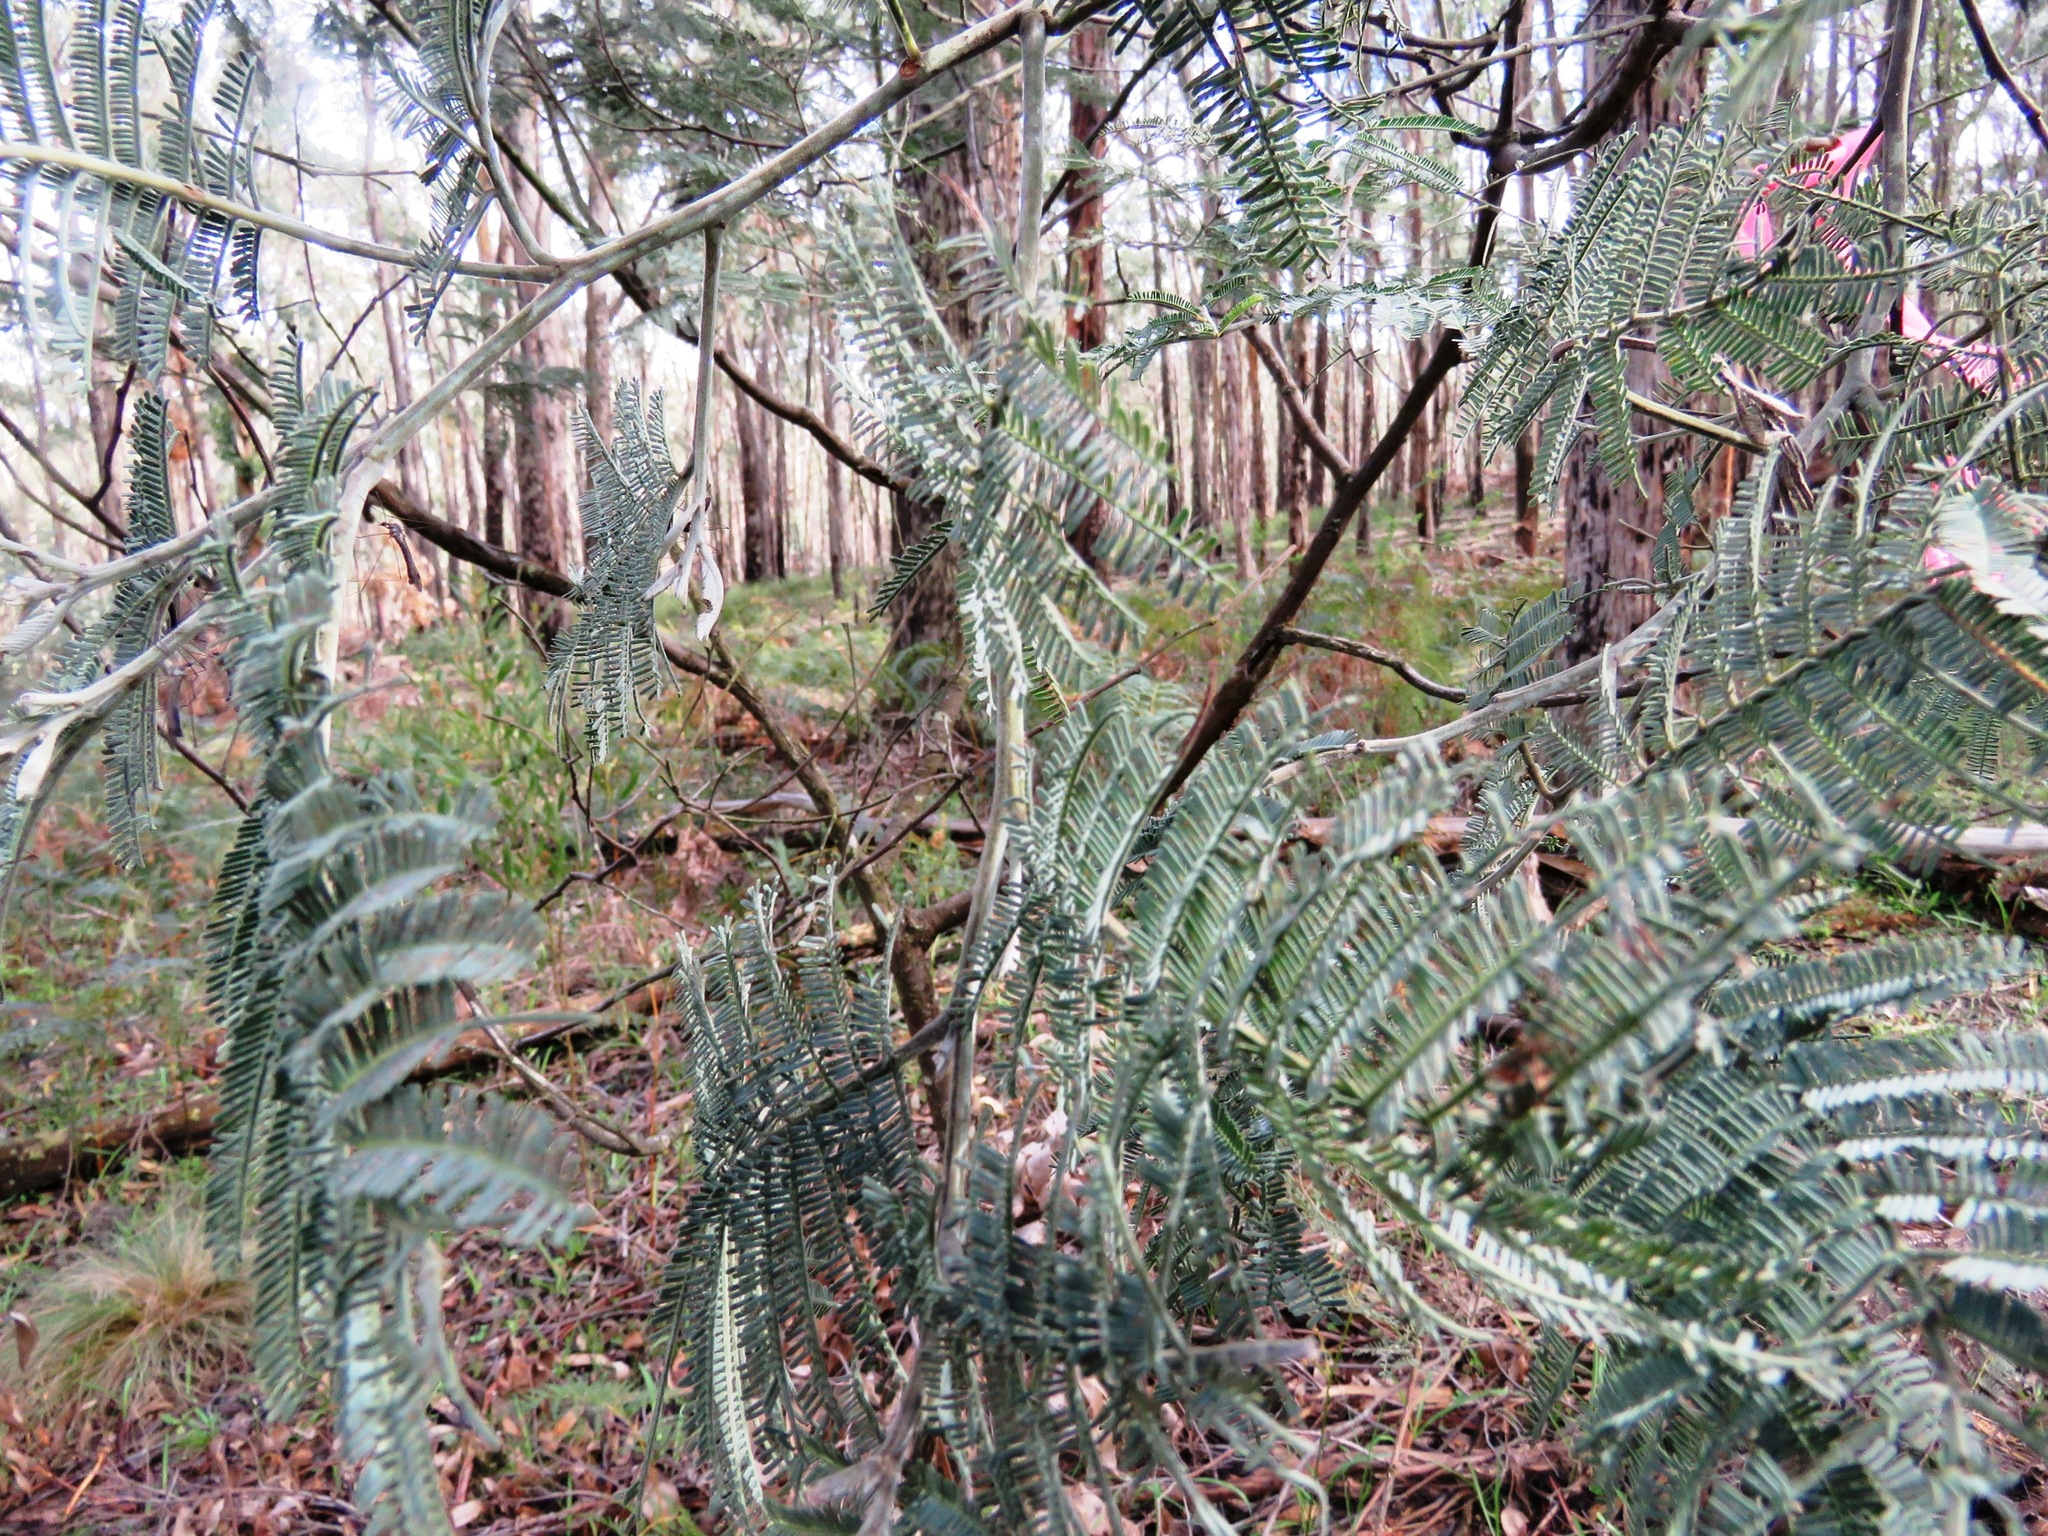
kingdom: Plantae
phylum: Tracheophyta
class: Magnoliopsida
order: Fabales
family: Fabaceae
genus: Acacia
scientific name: Acacia dealbata
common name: Silver wattle
